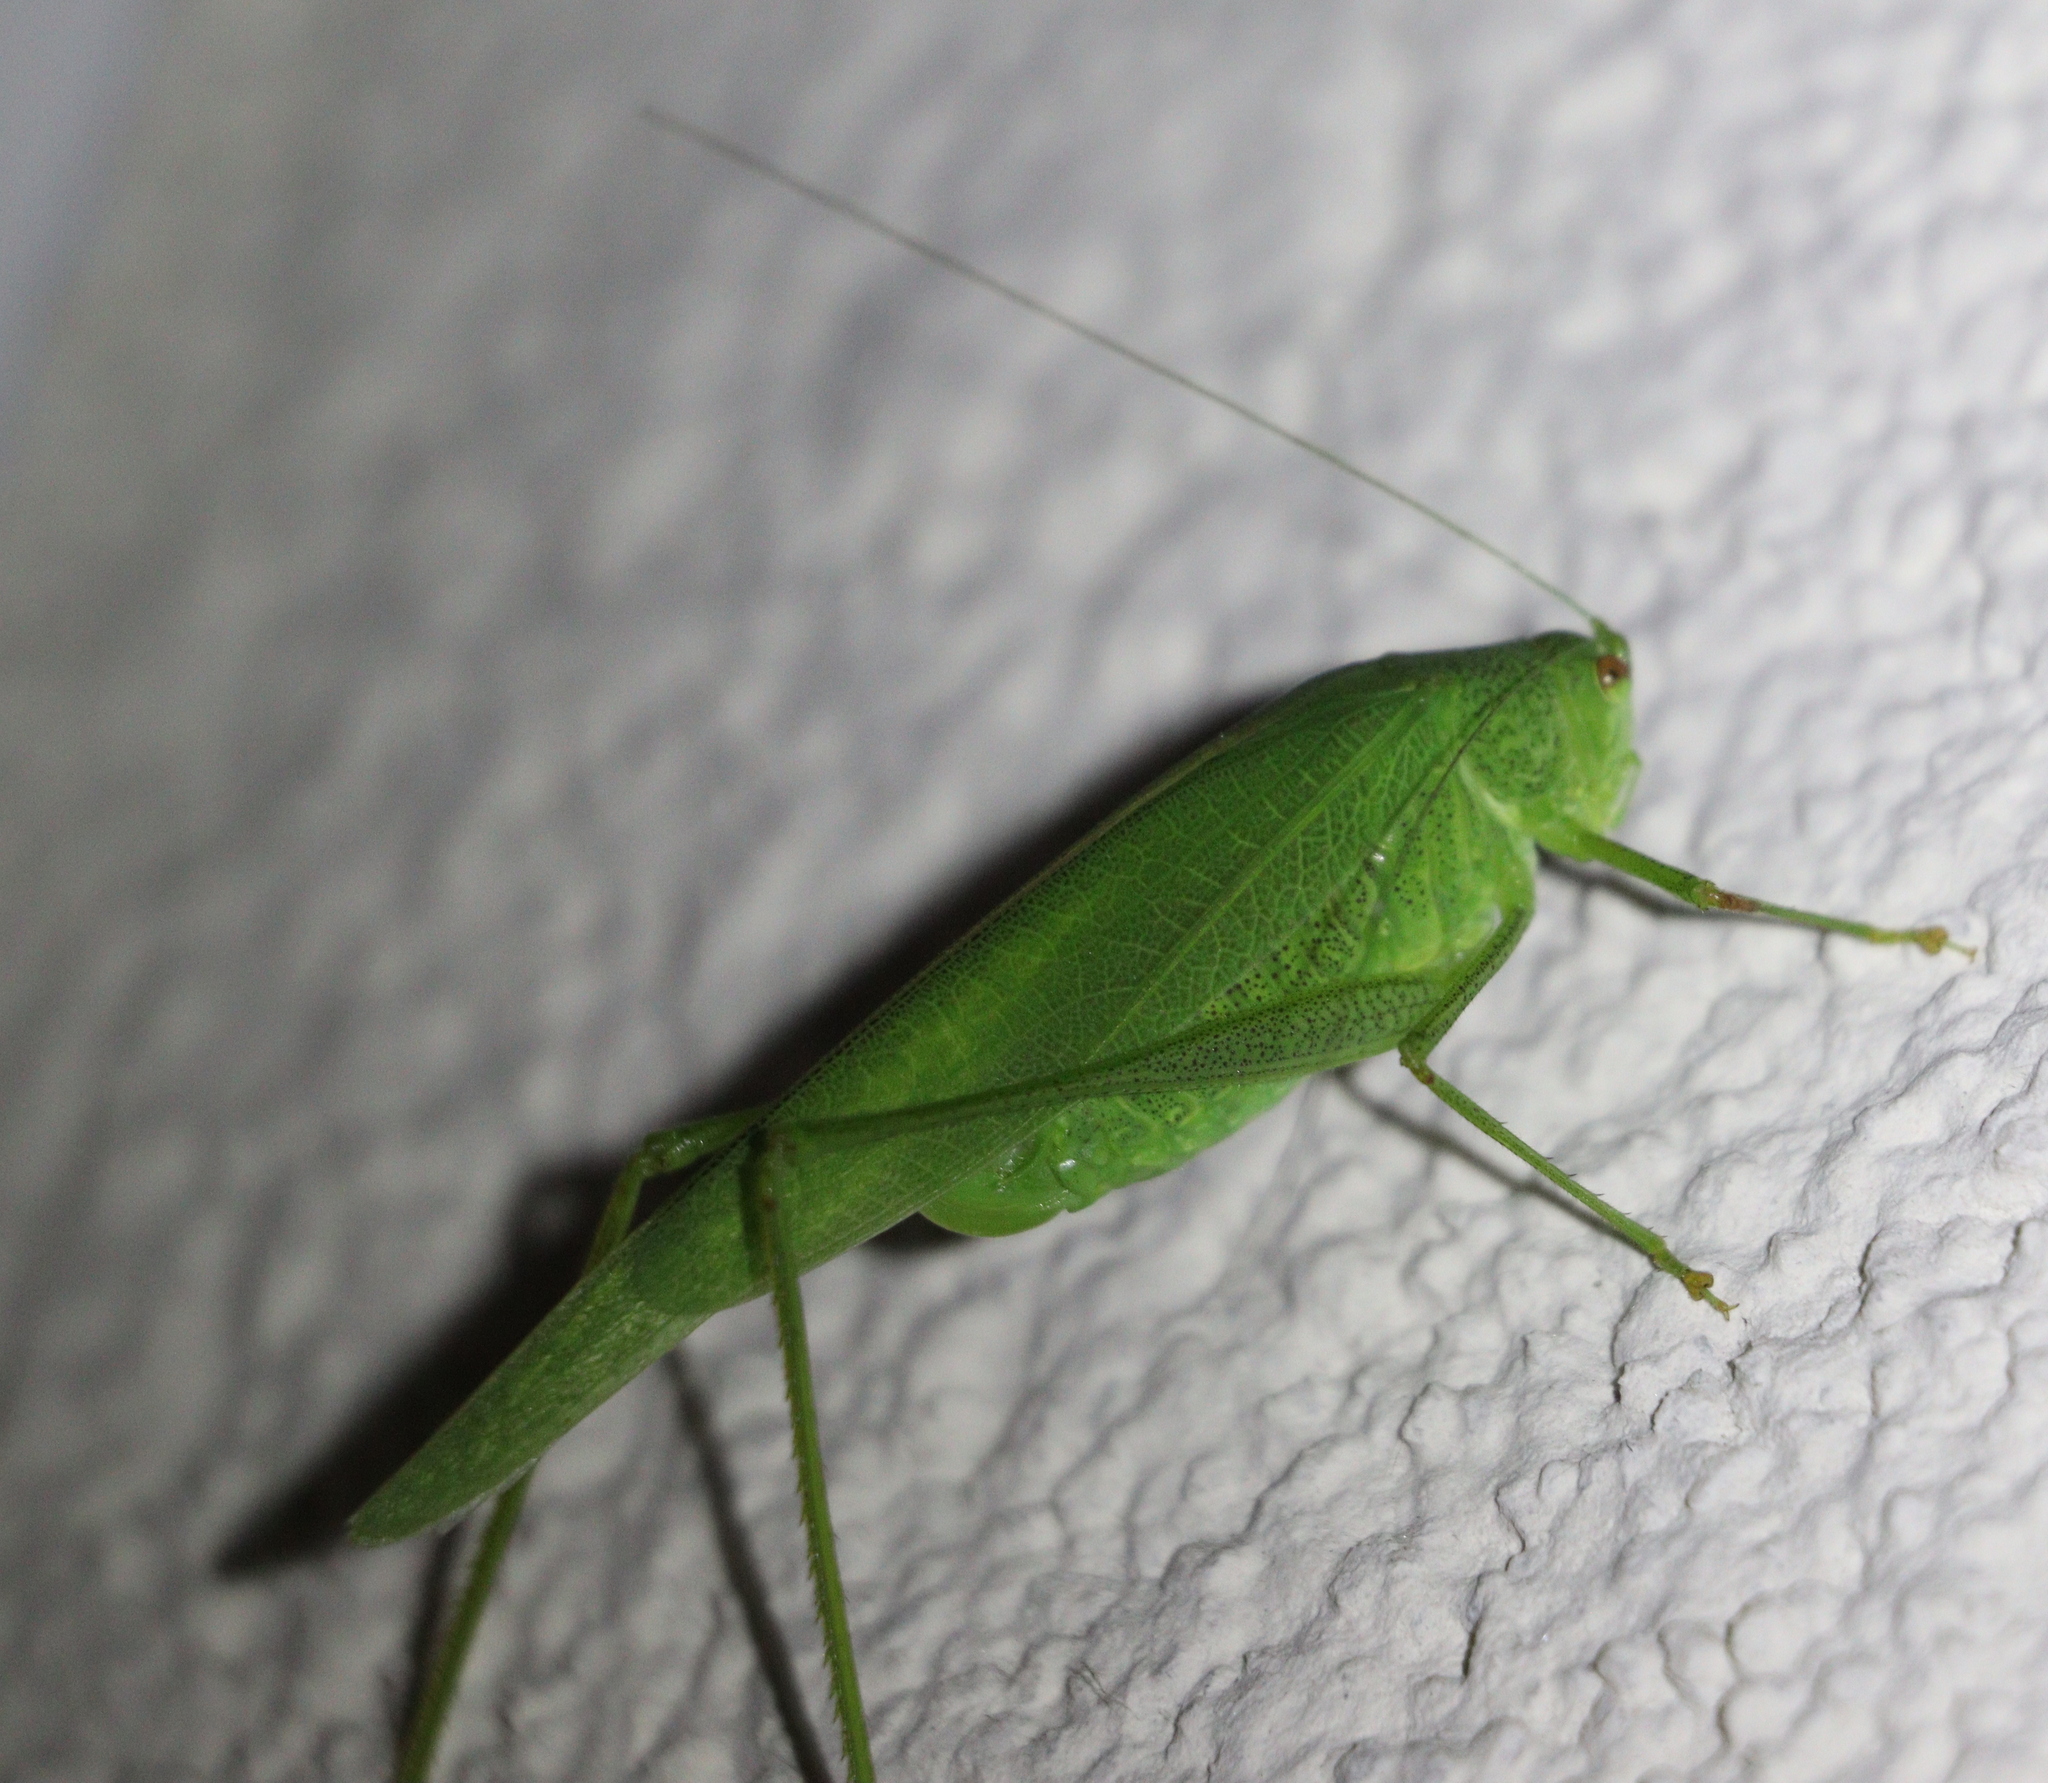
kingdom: Animalia
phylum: Arthropoda
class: Insecta
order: Orthoptera
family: Tettigoniidae
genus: Phaneroptera
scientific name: Phaneroptera nana
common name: Southern sickle bush-cricket
